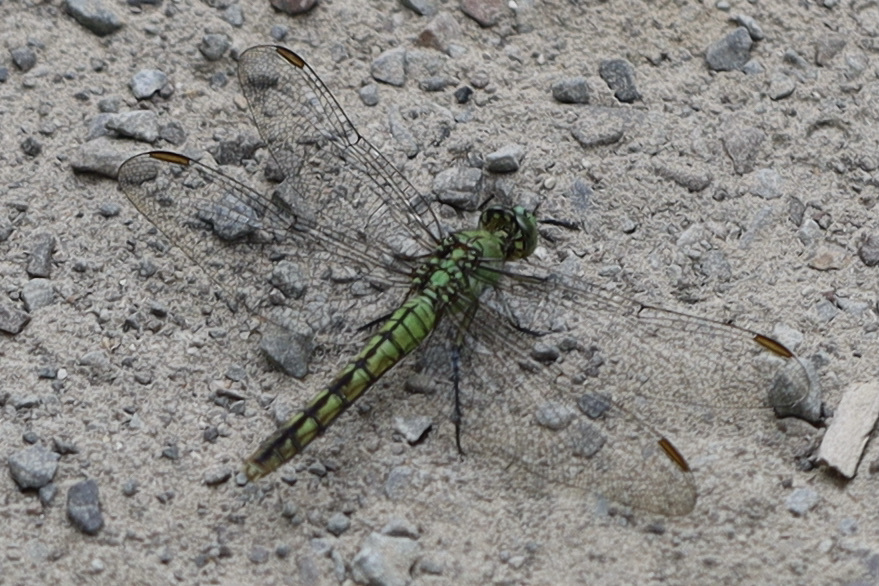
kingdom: Animalia
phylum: Arthropoda
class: Insecta
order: Odonata
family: Libellulidae
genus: Erythemis
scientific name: Erythemis collocata
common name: Western pondhawk
